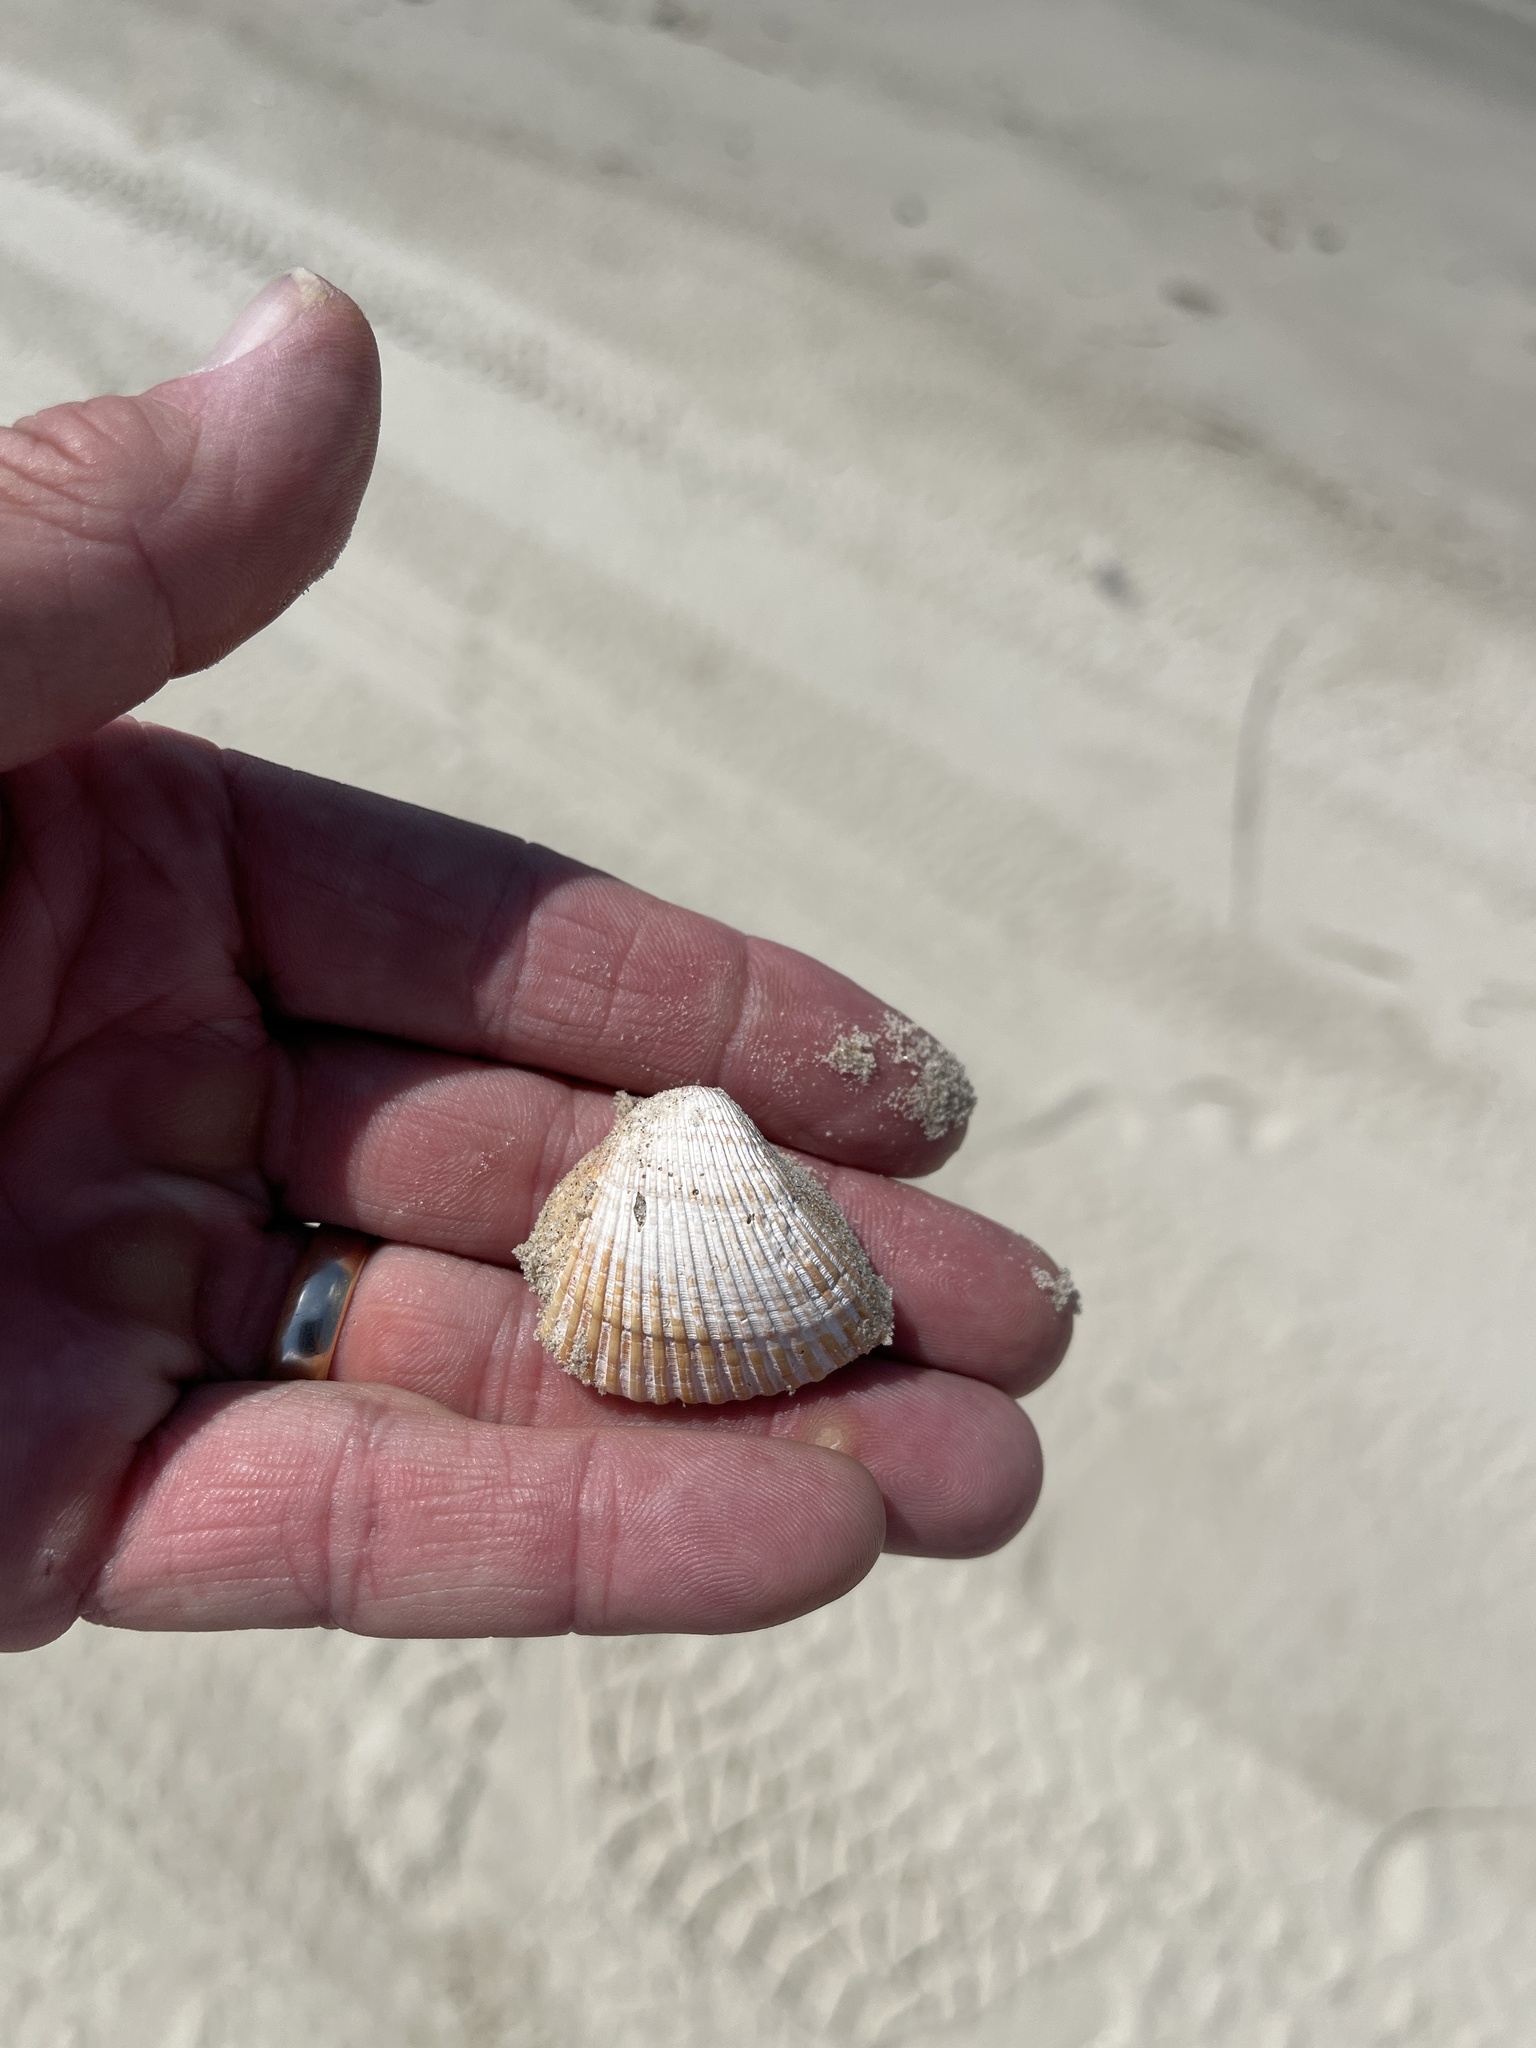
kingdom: Animalia
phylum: Mollusca
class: Bivalvia
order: Arcida
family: Noetiidae
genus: Noetia
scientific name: Noetia ponderosa
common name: Ponderous ark
